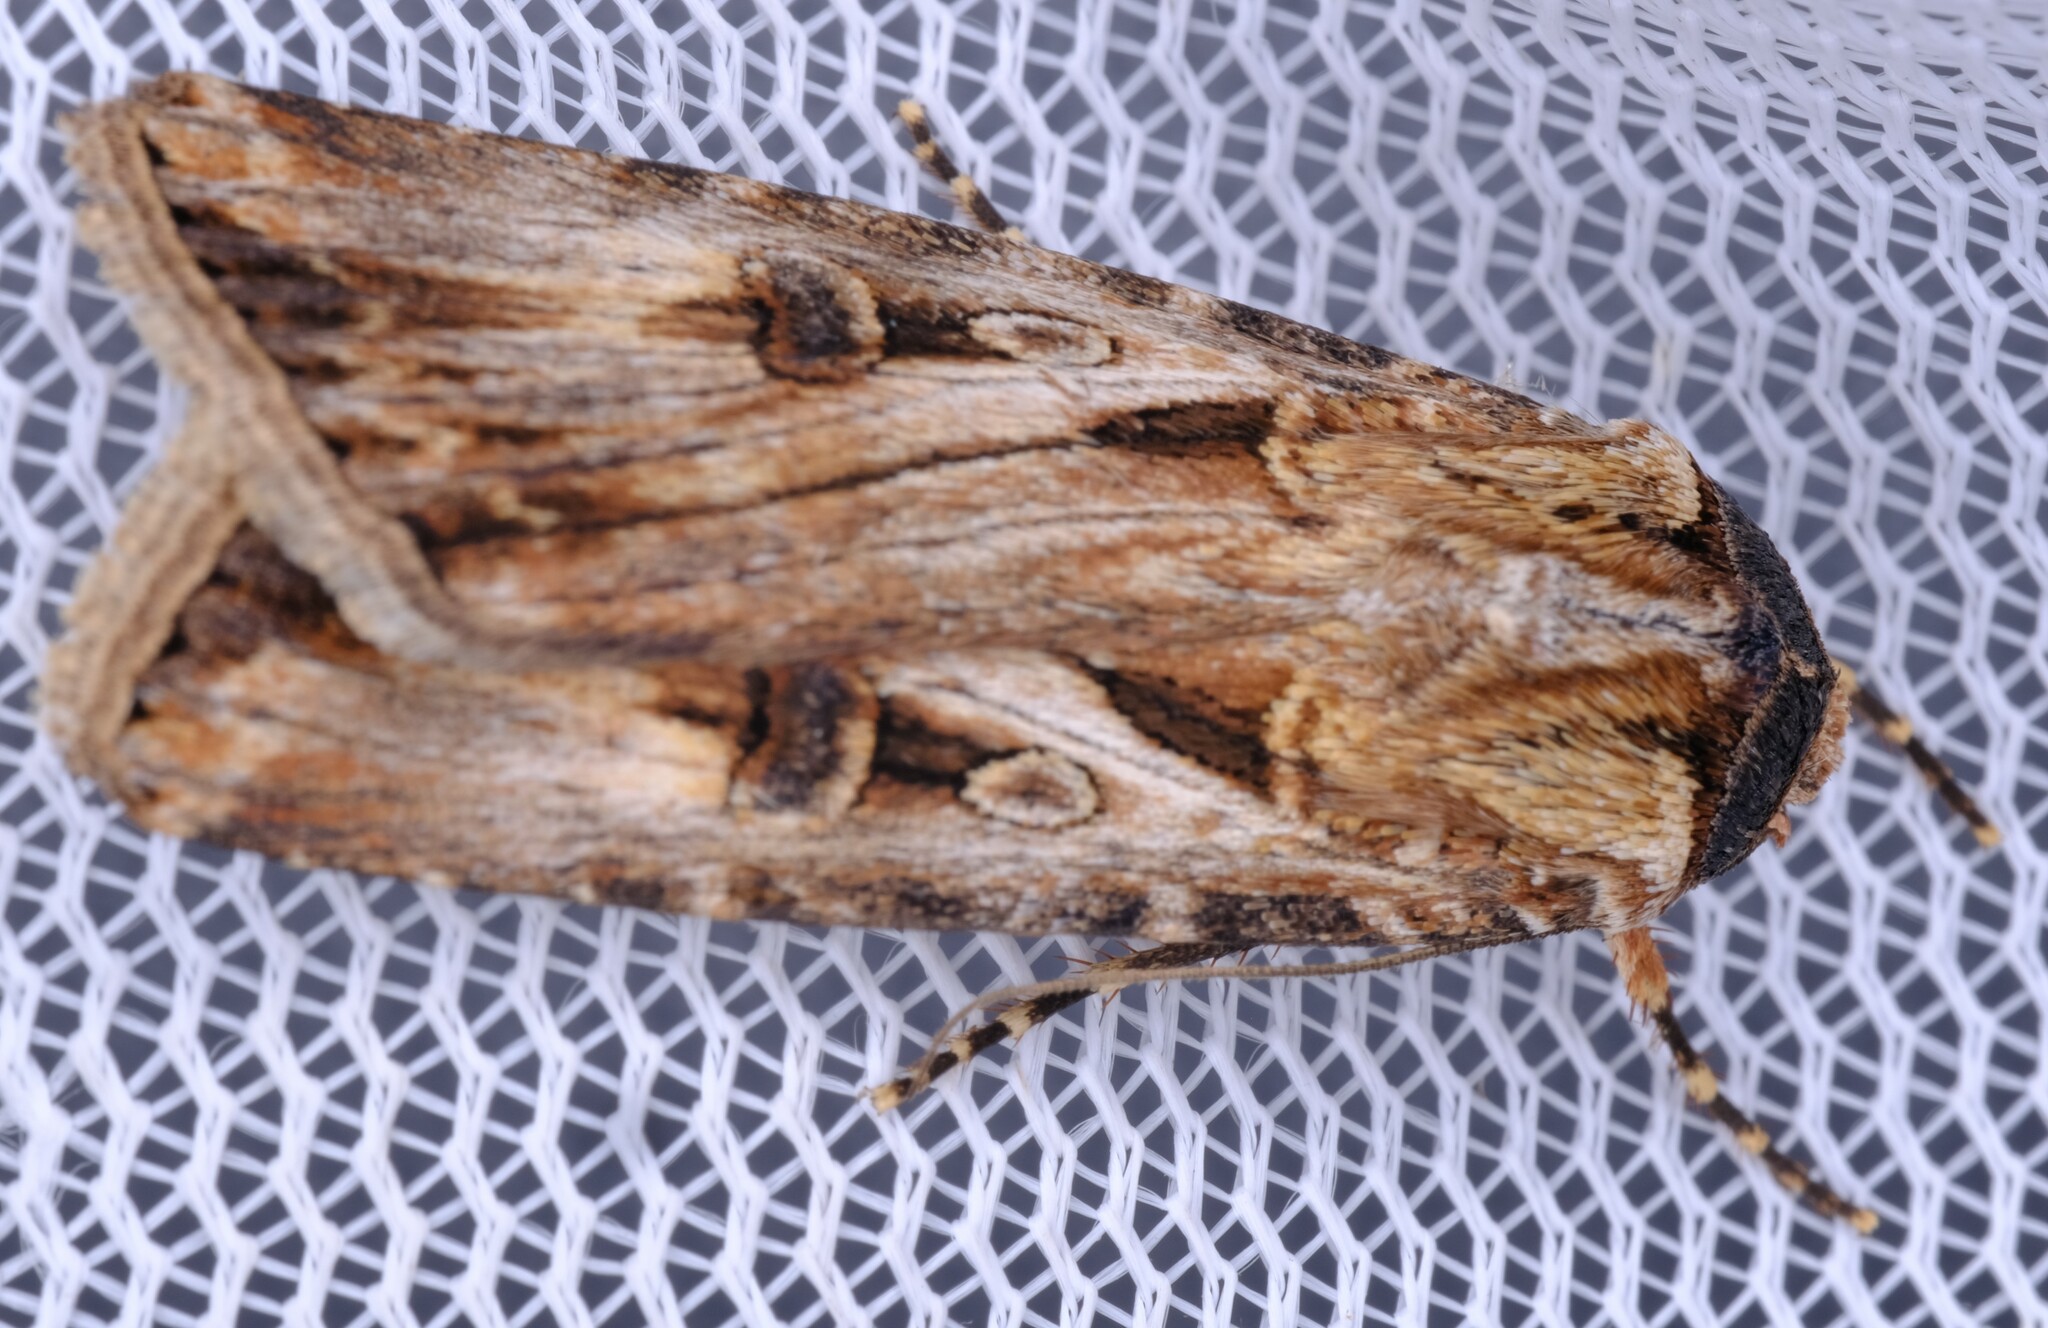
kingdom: Animalia
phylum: Arthropoda
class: Insecta
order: Lepidoptera
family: Noctuidae
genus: Agrotis
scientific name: Agrotis munda
